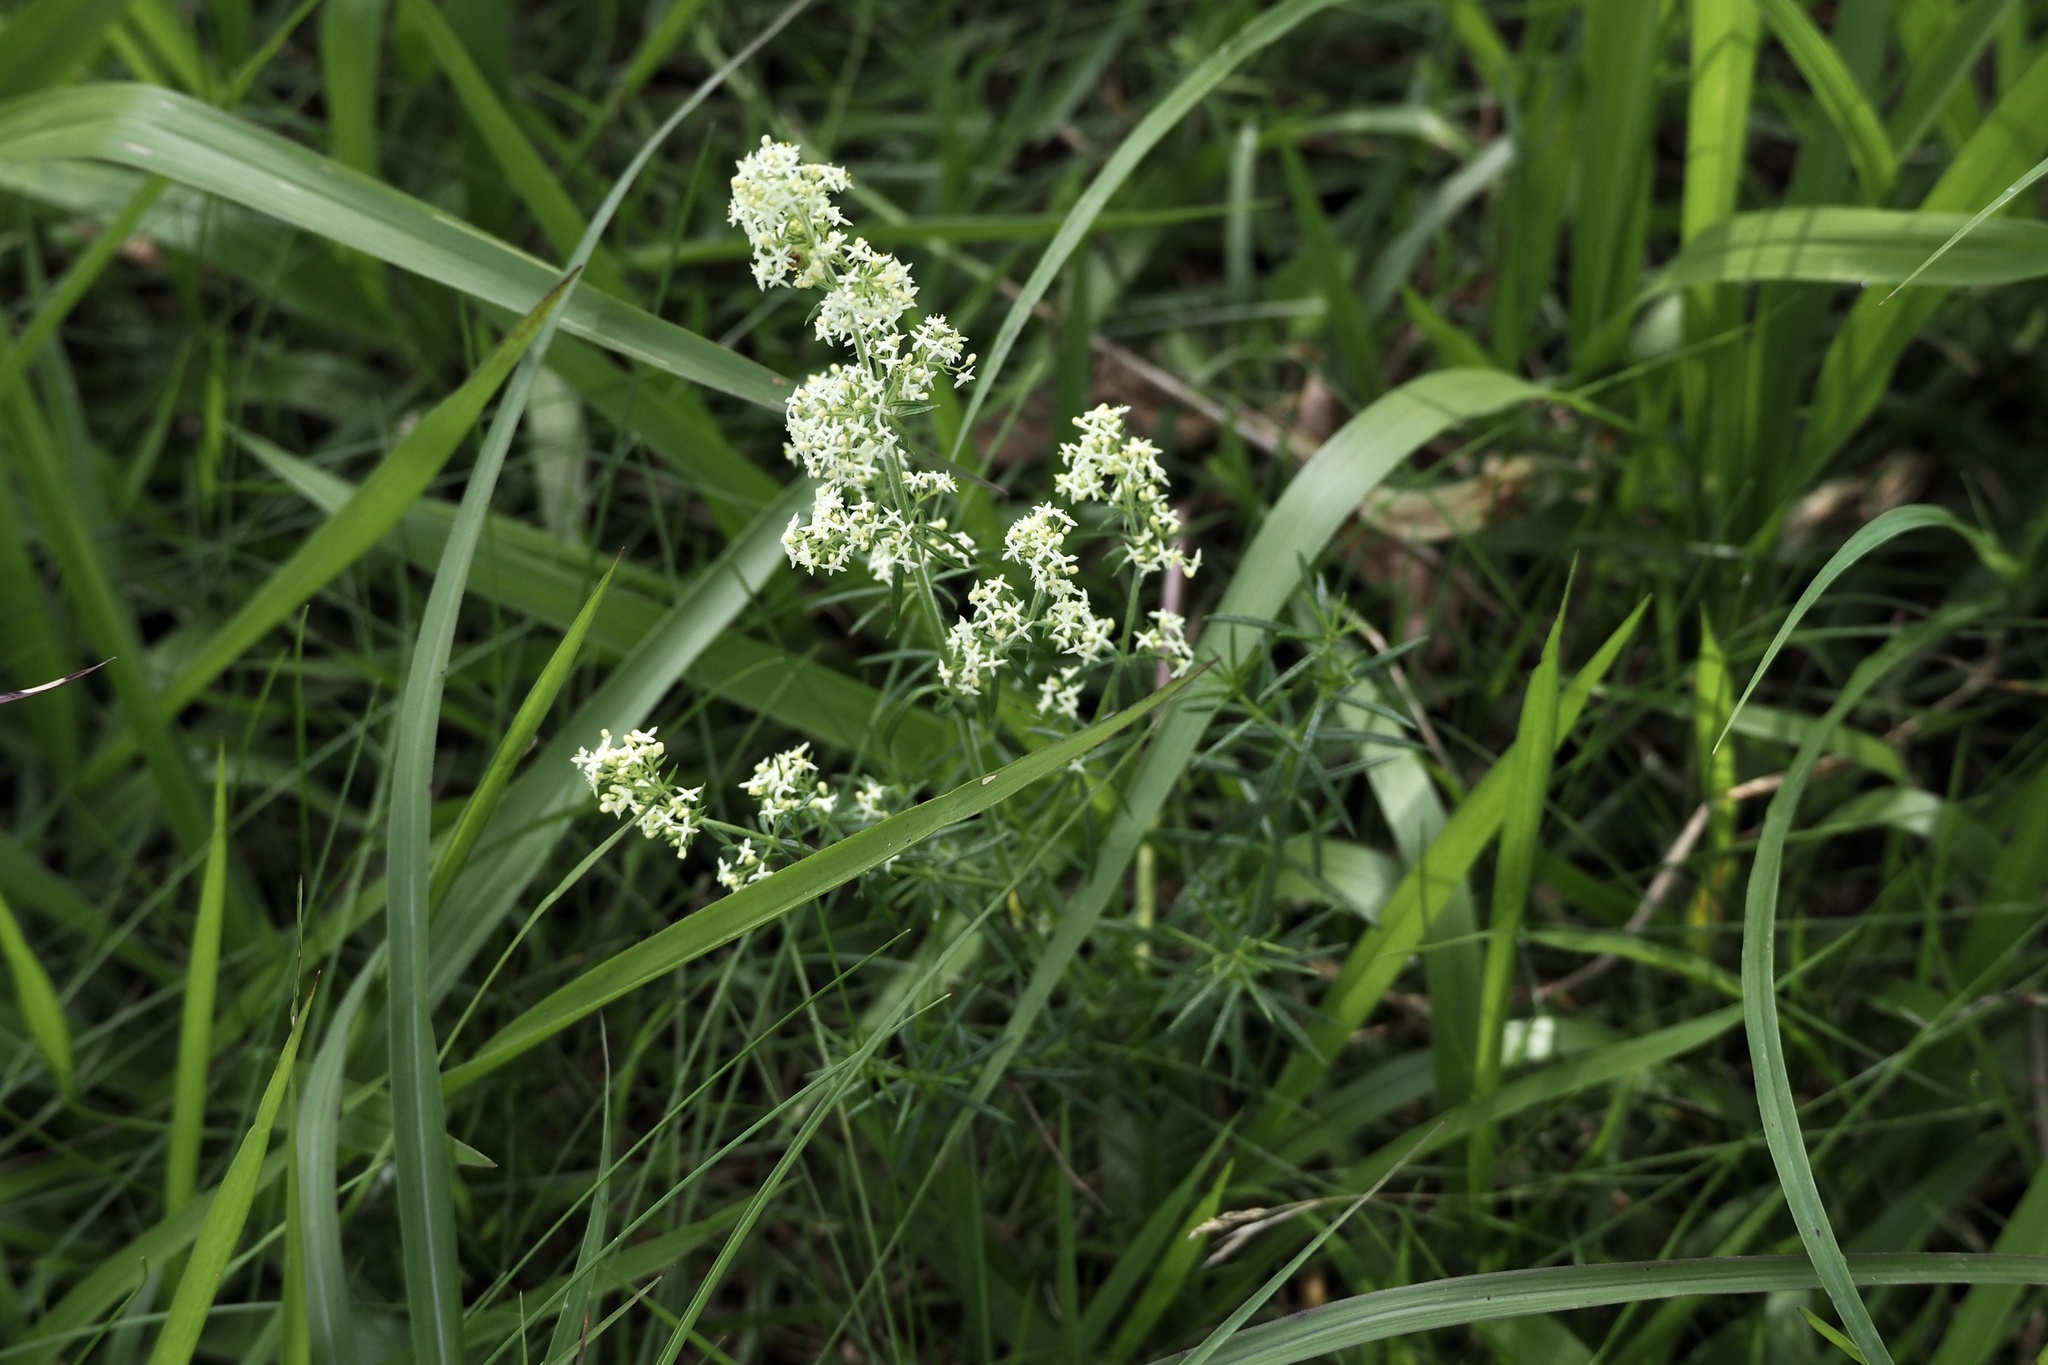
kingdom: Plantae
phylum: Tracheophyta
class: Magnoliopsida
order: Gentianales
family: Rubiaceae
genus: Galium
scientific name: Galium verum
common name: Lady's bedstraw
